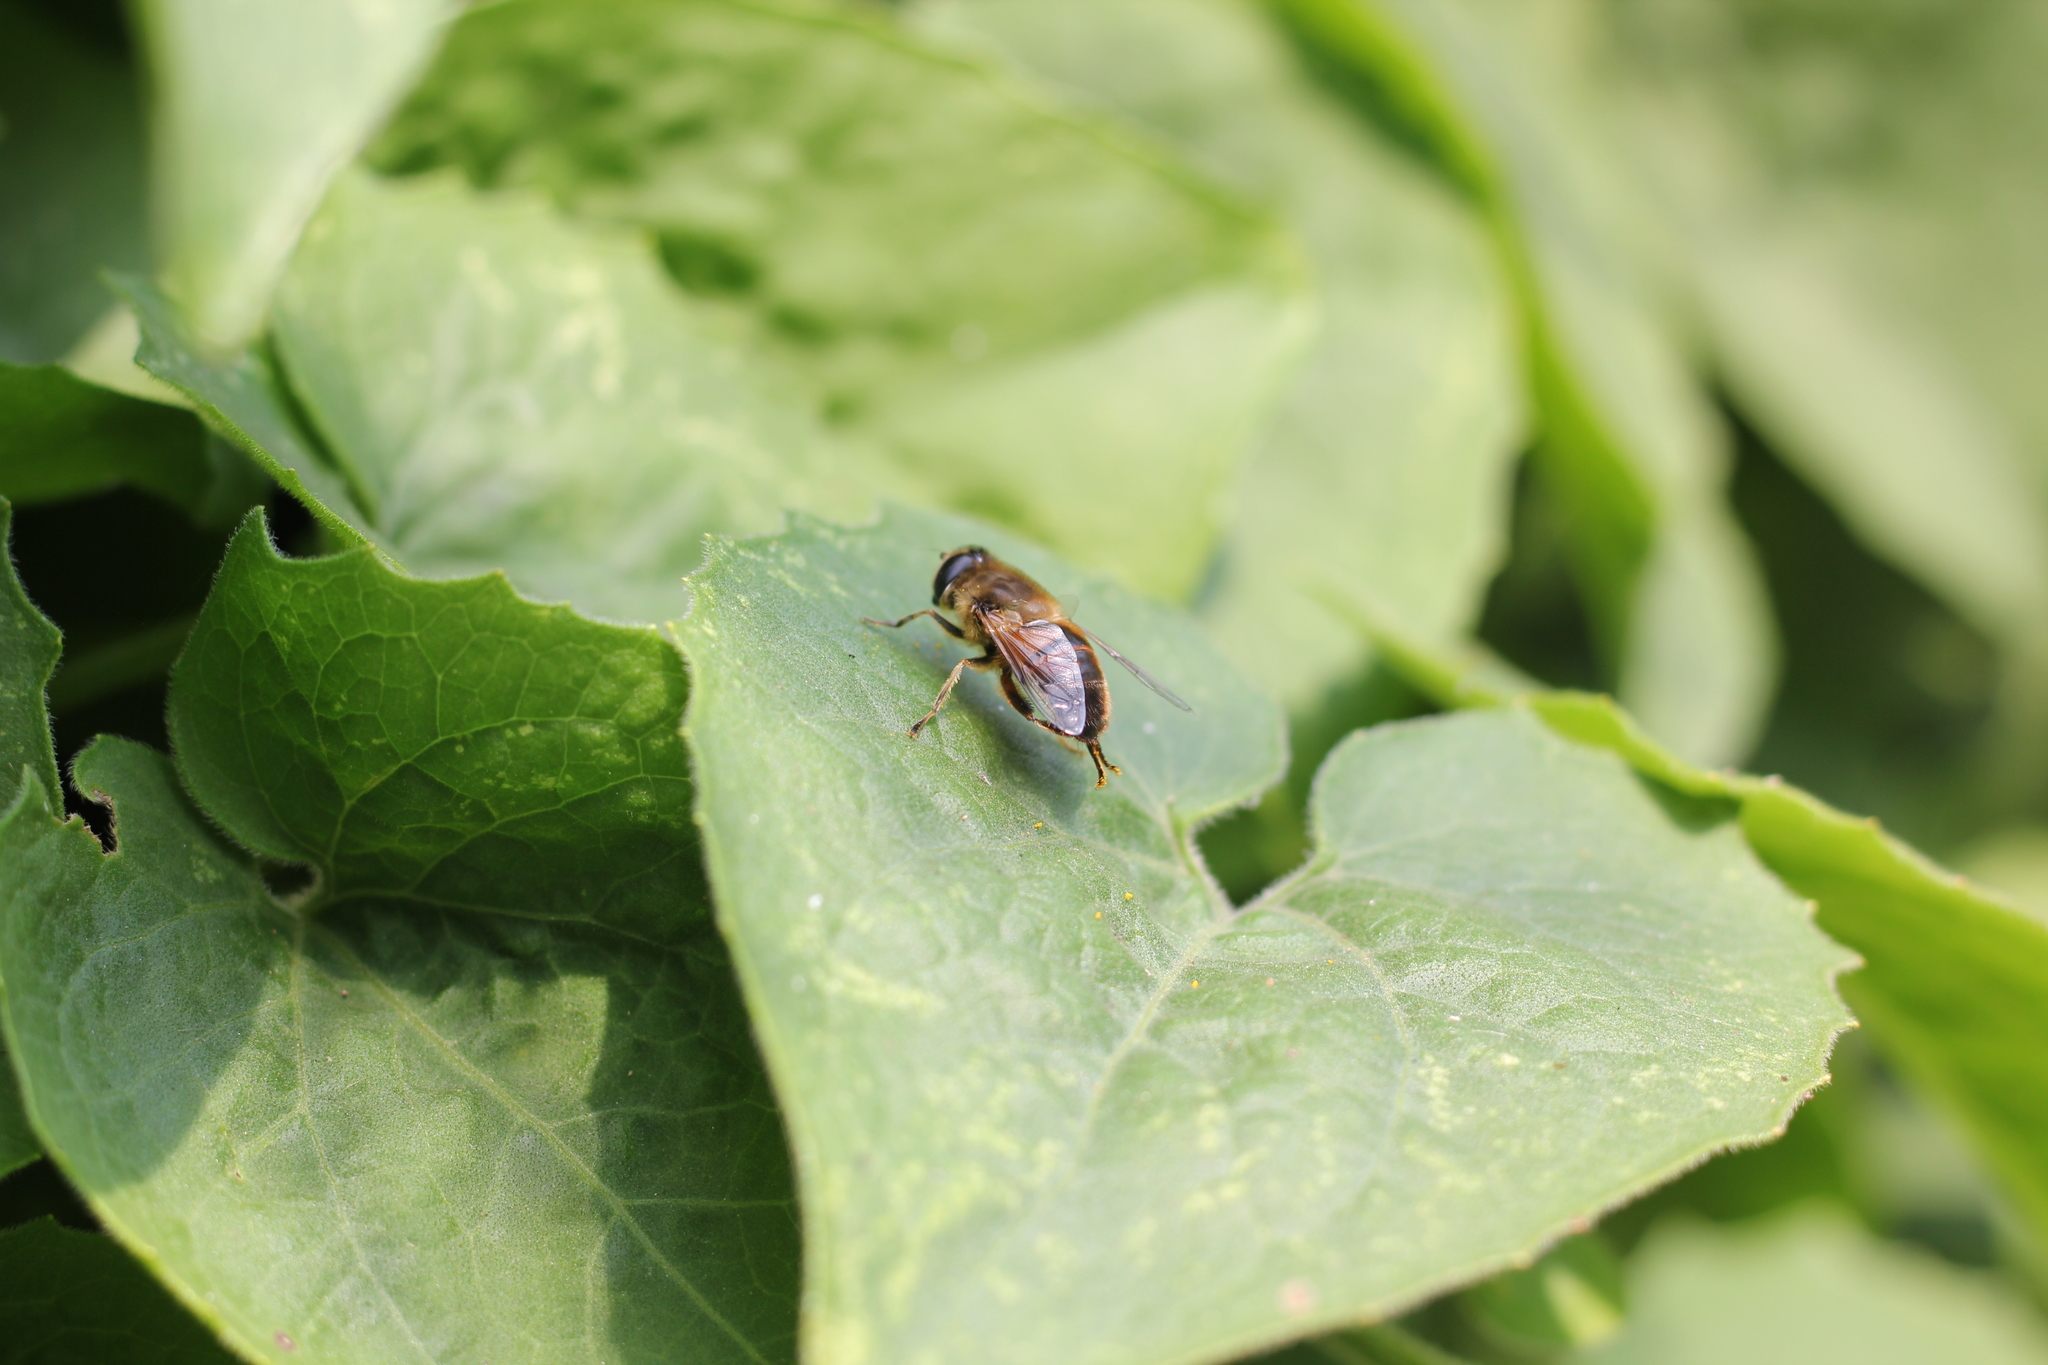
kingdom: Animalia
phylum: Arthropoda
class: Insecta
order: Diptera
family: Syrphidae
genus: Eristalis
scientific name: Eristalis tenax
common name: Drone fly
